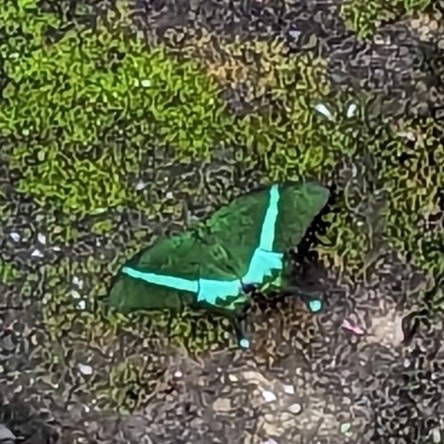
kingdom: Animalia
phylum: Arthropoda
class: Insecta
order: Lepidoptera
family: Papilionidae
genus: Papilio
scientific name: Papilio crino
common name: Common banded peacock
